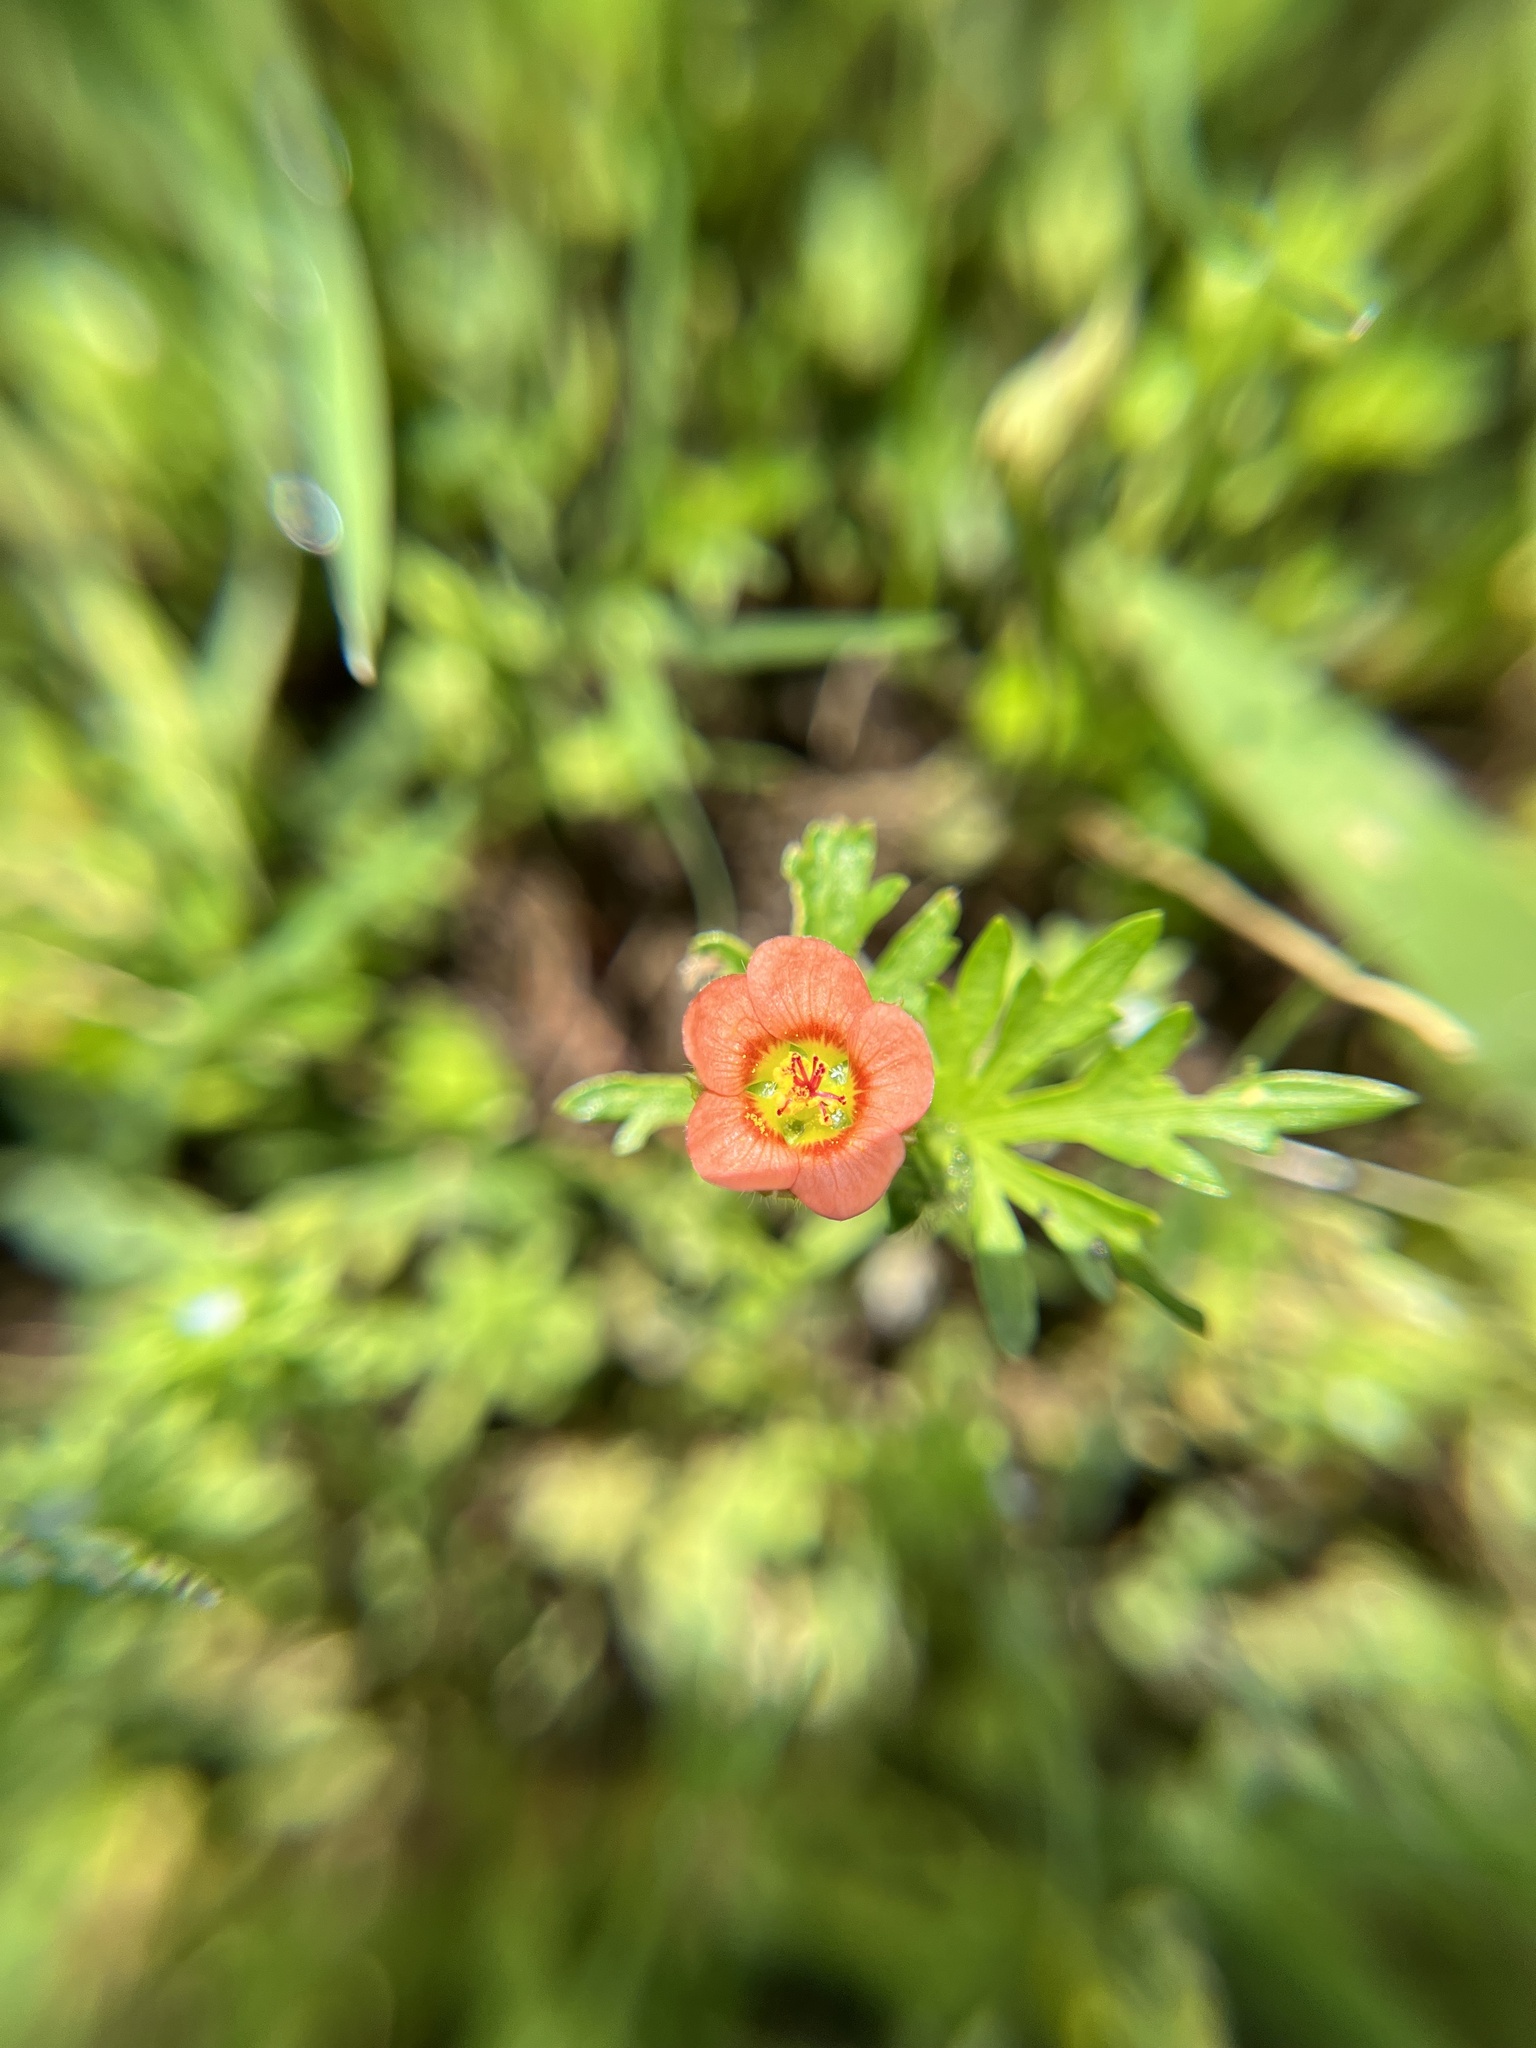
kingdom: Plantae
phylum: Tracheophyta
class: Magnoliopsida
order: Malvales
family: Malvaceae
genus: Modiola
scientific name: Modiola caroliniana
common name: Carolina bristlemallow
